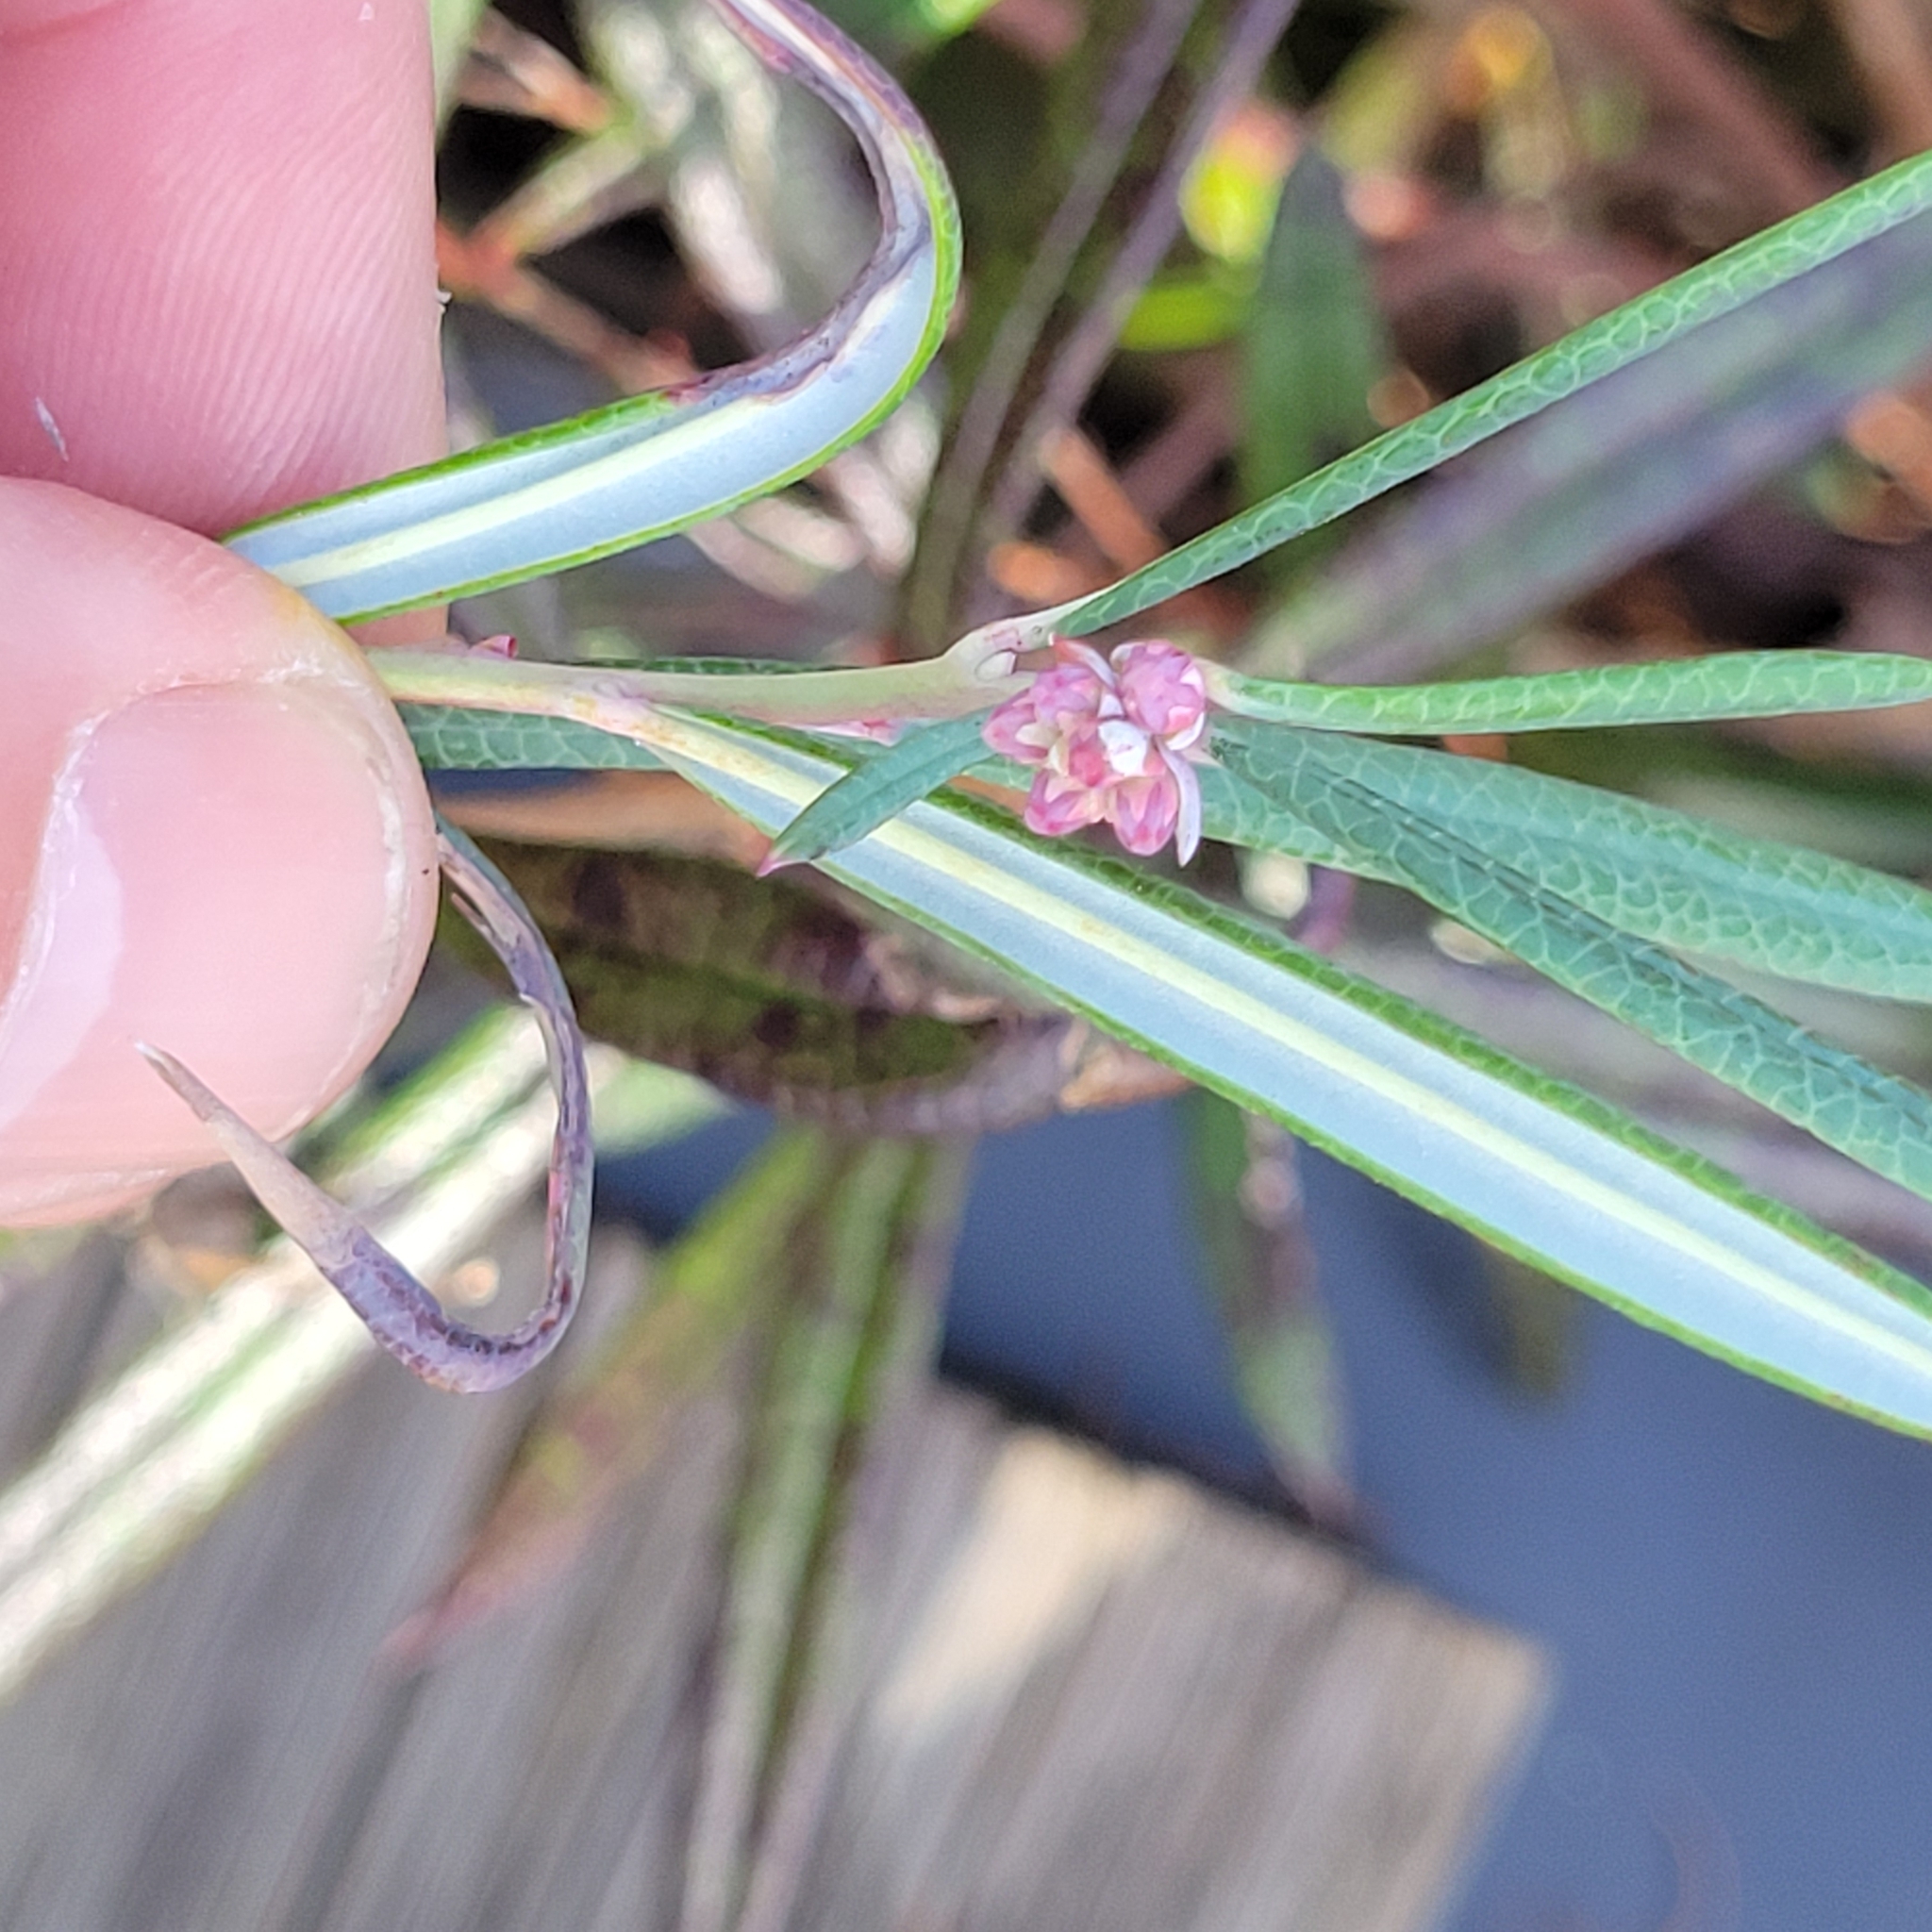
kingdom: Plantae
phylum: Tracheophyta
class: Magnoliopsida
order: Ericales
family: Ericaceae
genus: Andromeda
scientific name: Andromeda polifolia
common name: Bog-rosemary
